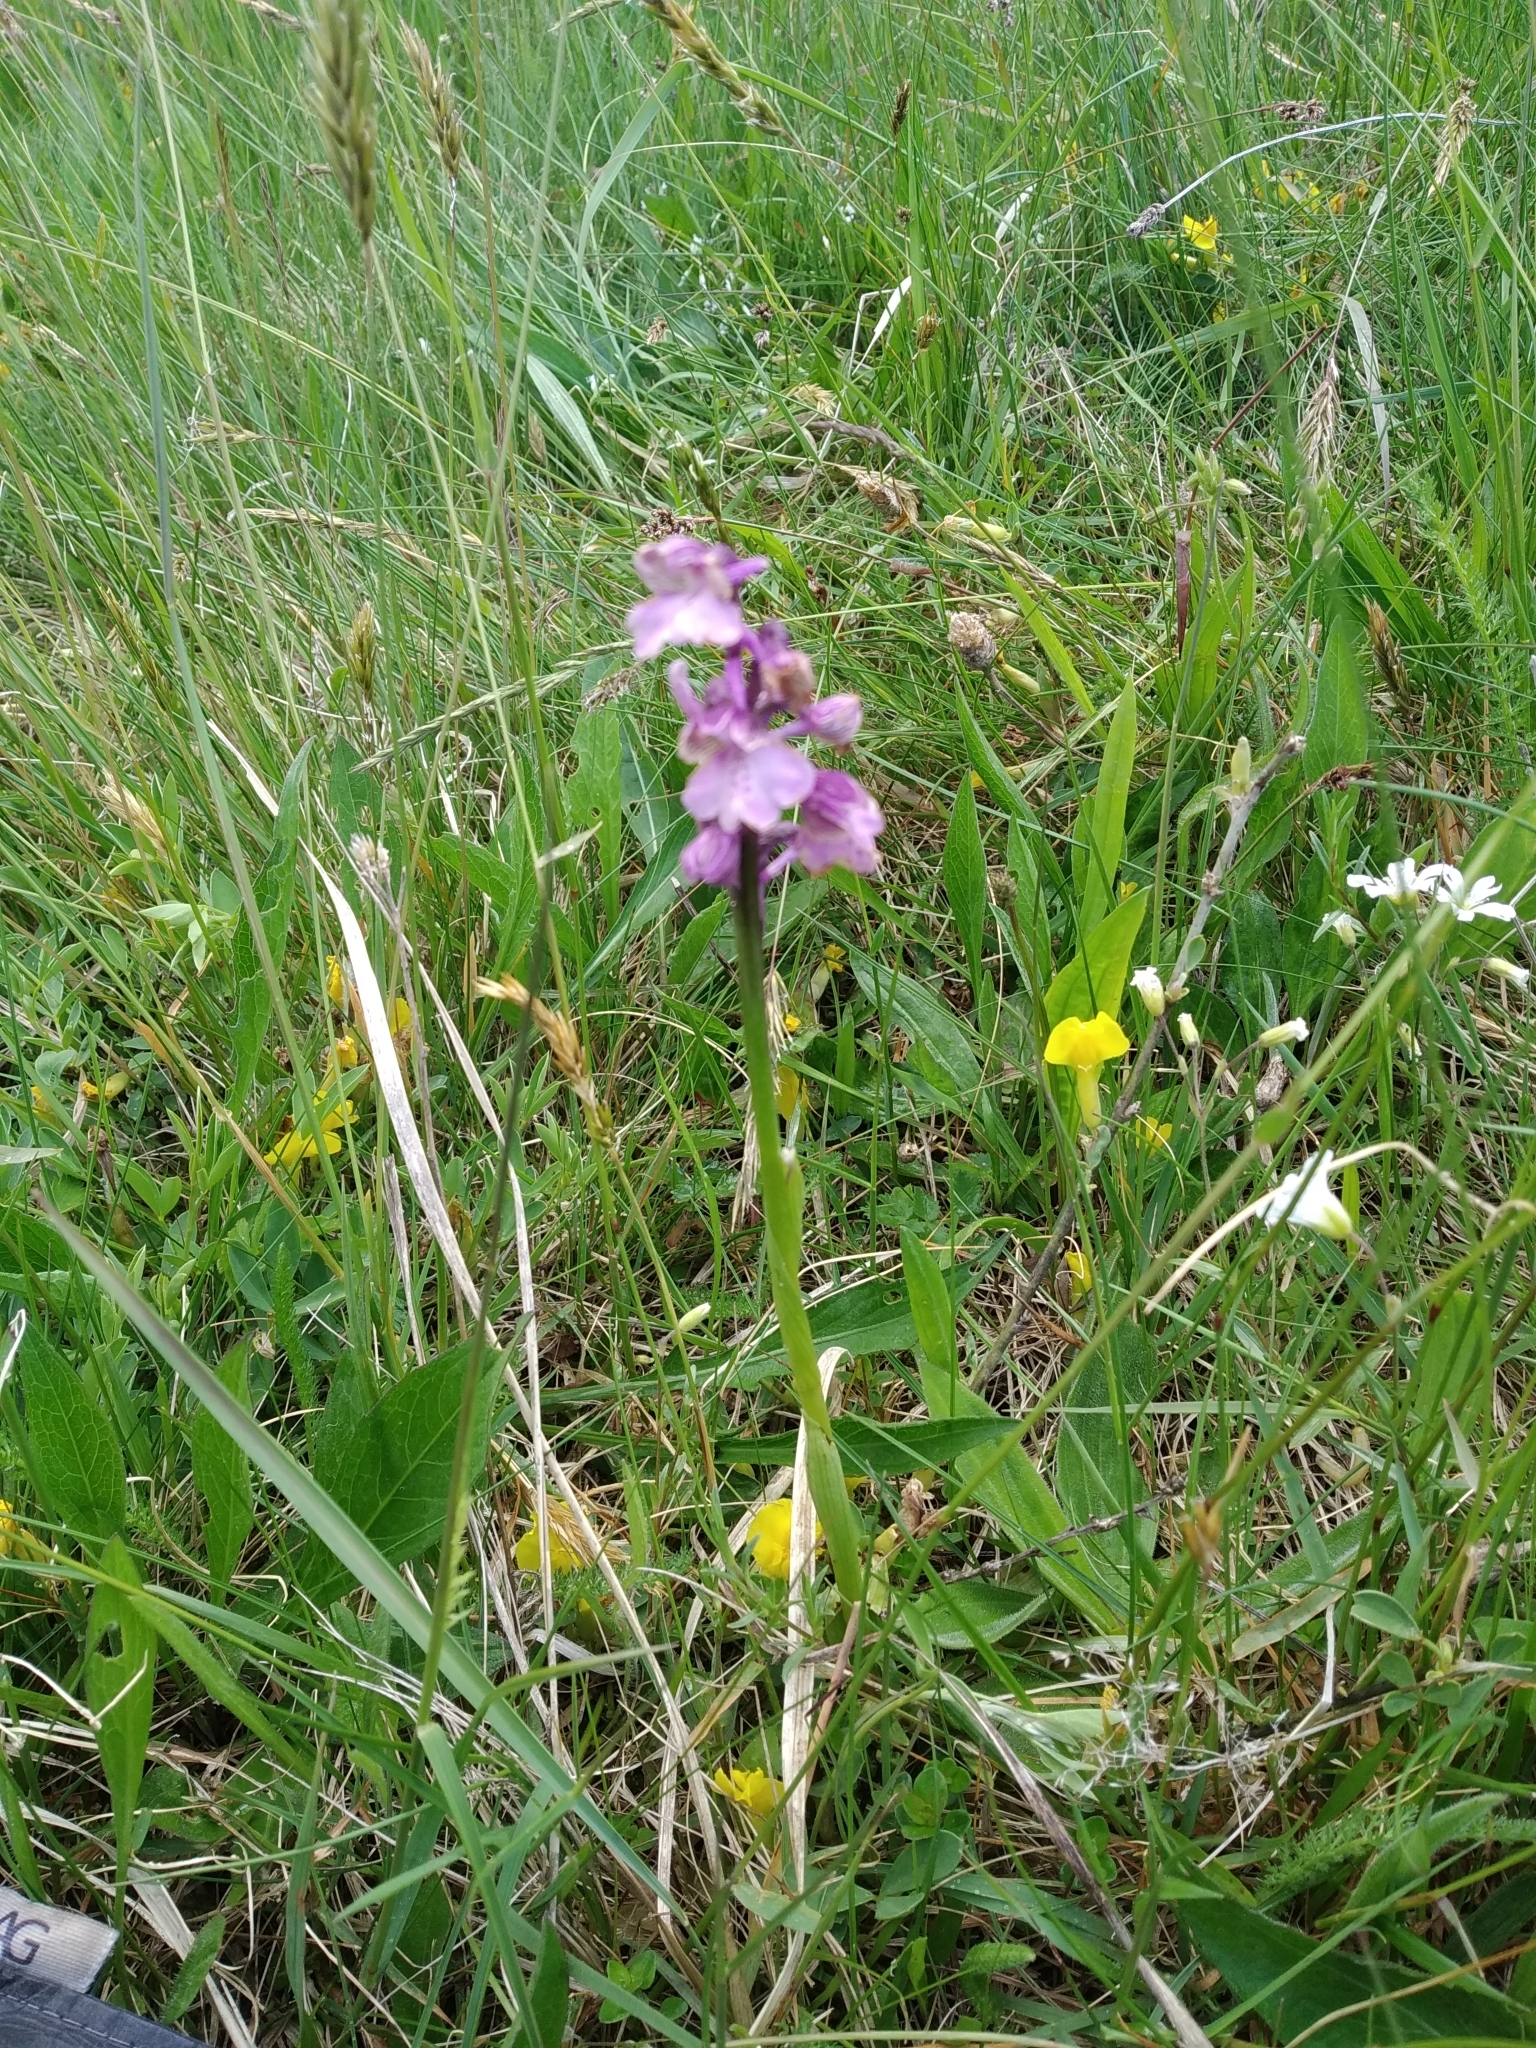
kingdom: Plantae
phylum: Tracheophyta
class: Liliopsida
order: Asparagales
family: Orchidaceae
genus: Anacamptis
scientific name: Anacamptis morio
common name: Green-winged orchid
